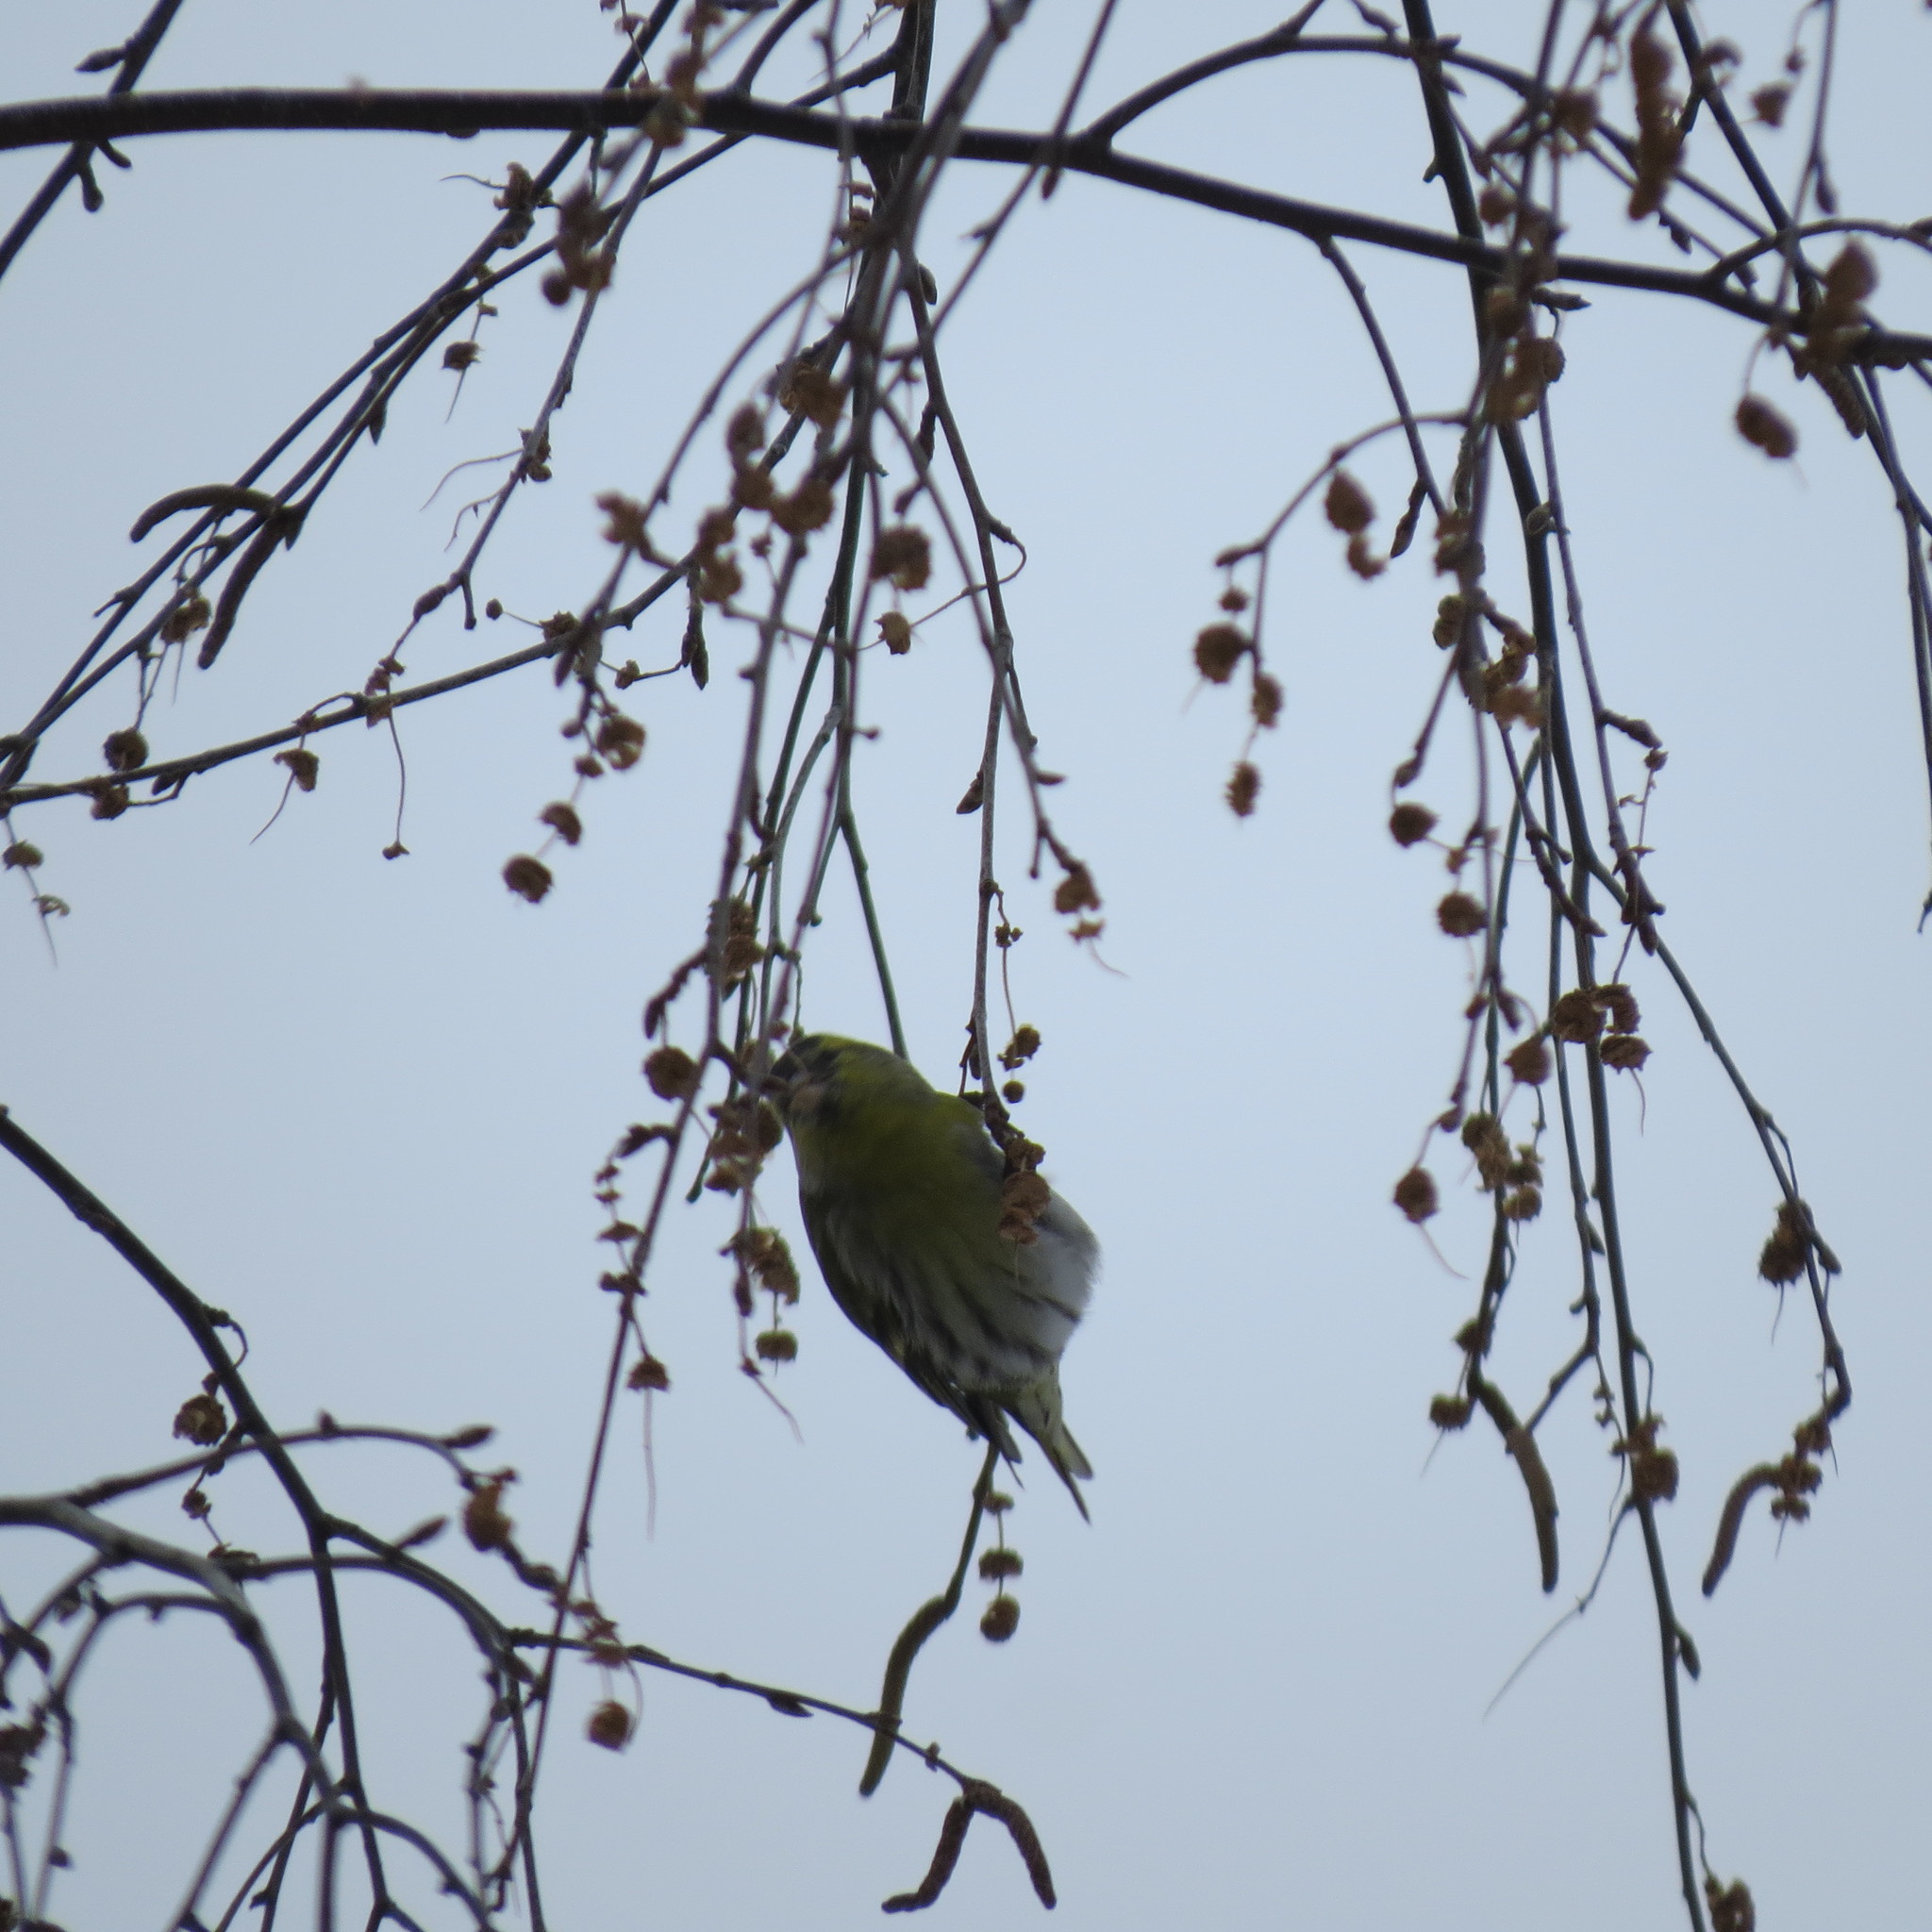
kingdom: Animalia
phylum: Chordata
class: Aves
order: Passeriformes
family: Fringillidae
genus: Spinus
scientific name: Spinus spinus
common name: Eurasian siskin
